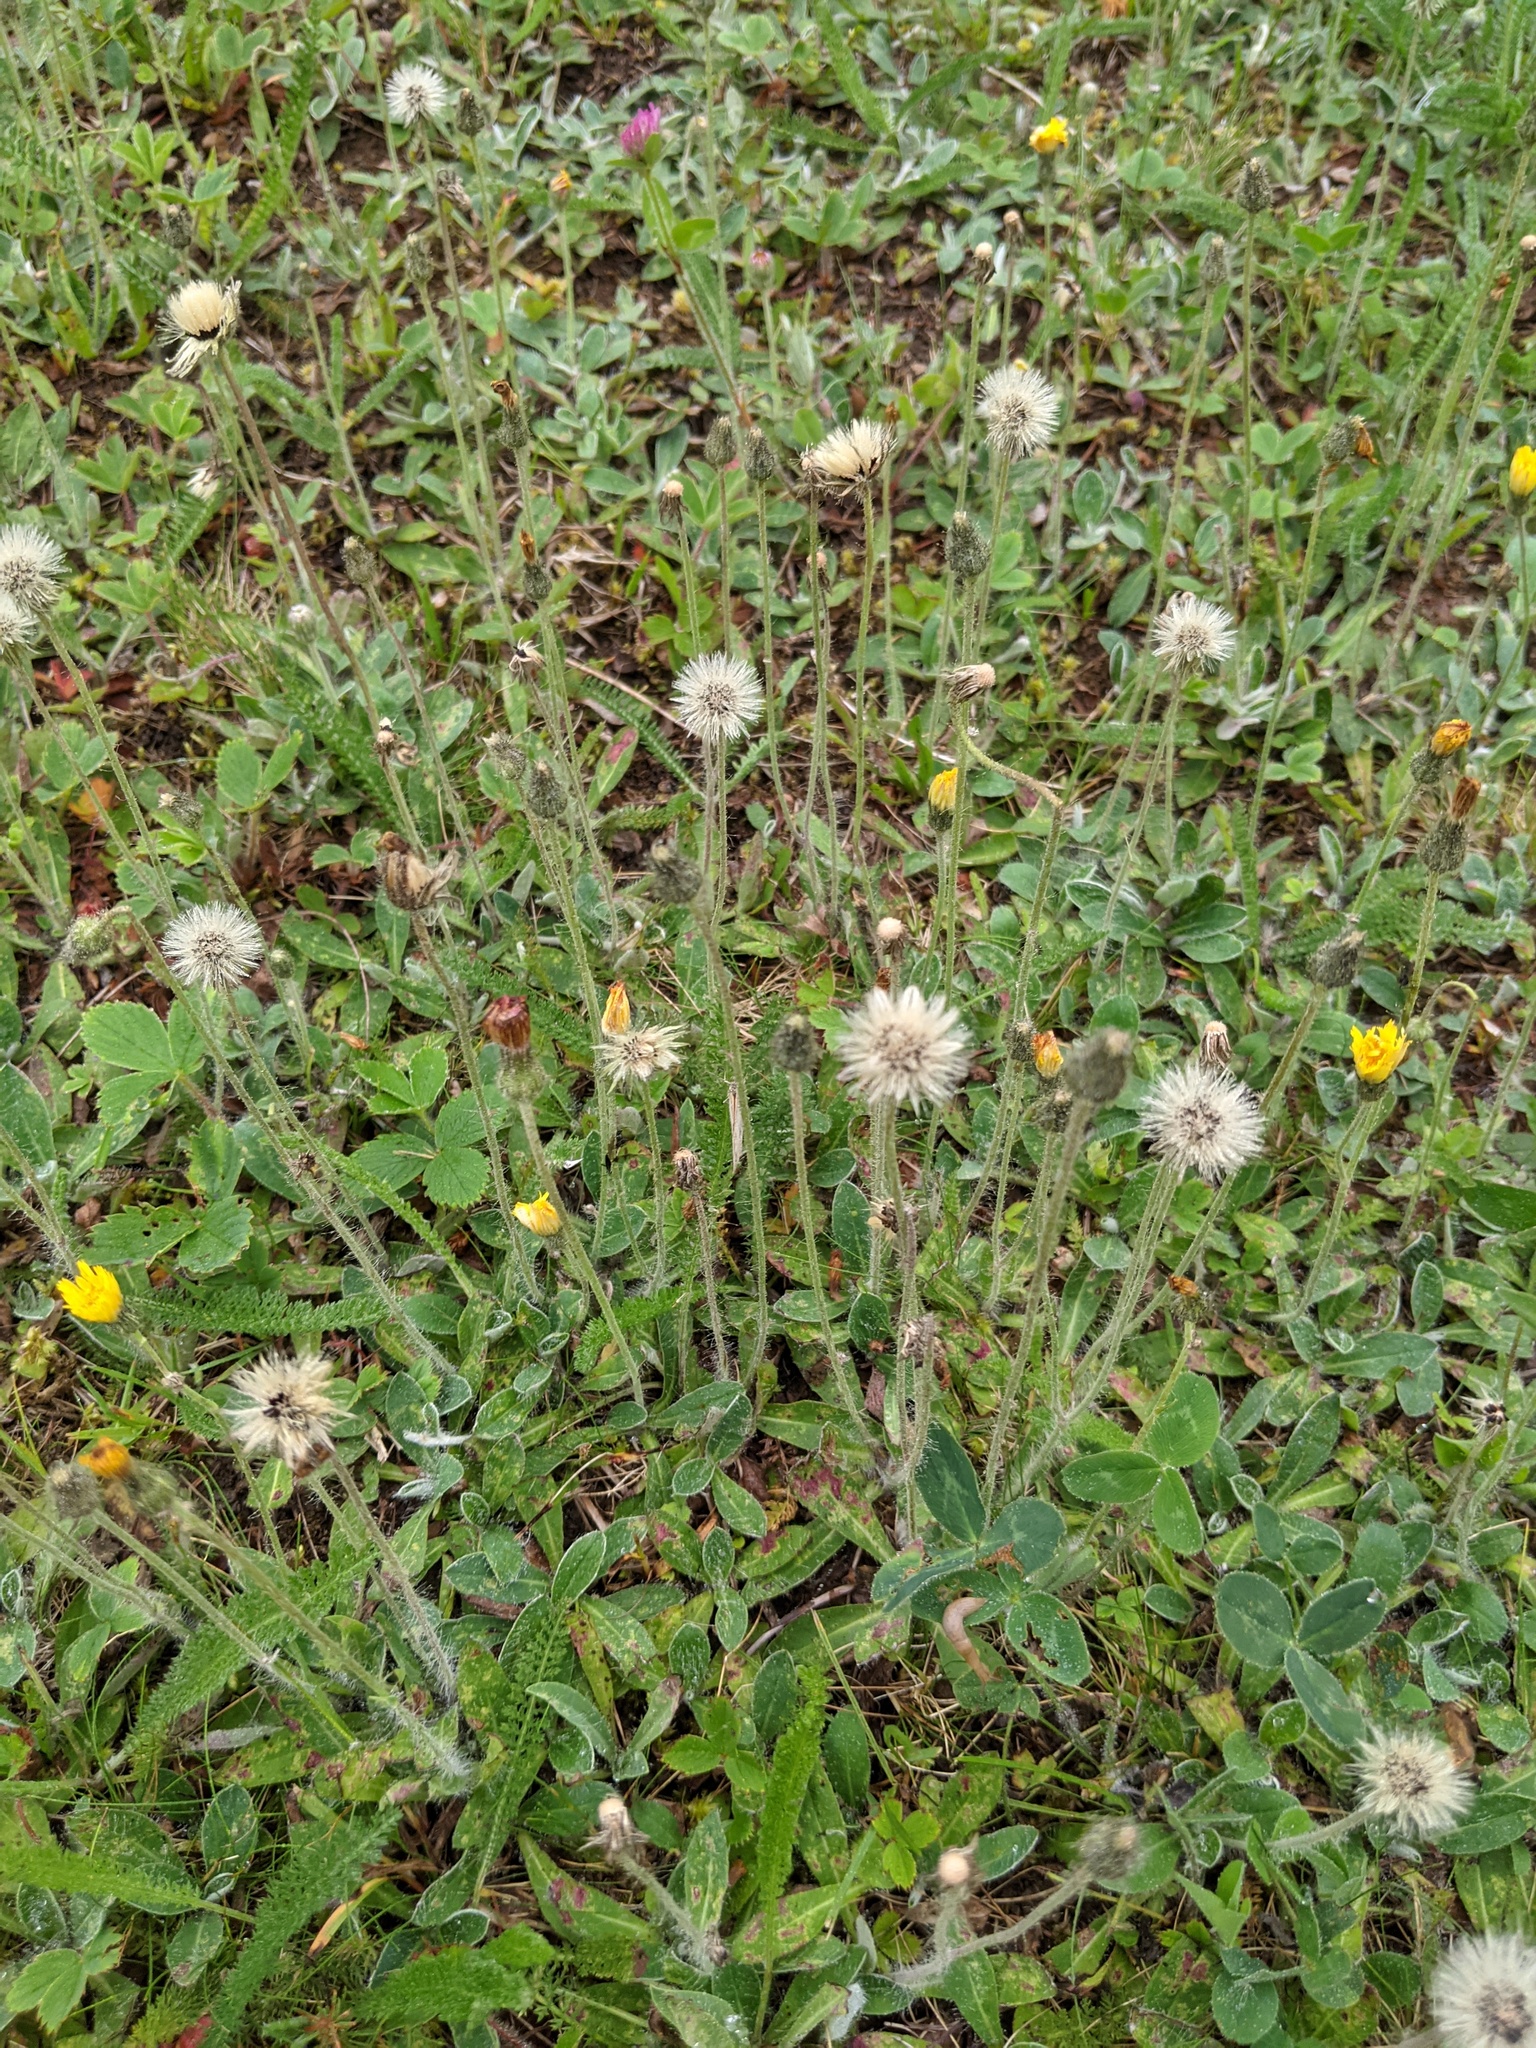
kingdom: Plantae
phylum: Tracheophyta
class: Magnoliopsida
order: Asterales
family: Asteraceae
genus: Pilosella
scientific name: Pilosella officinarum
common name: Mouse-ear hawkweed
